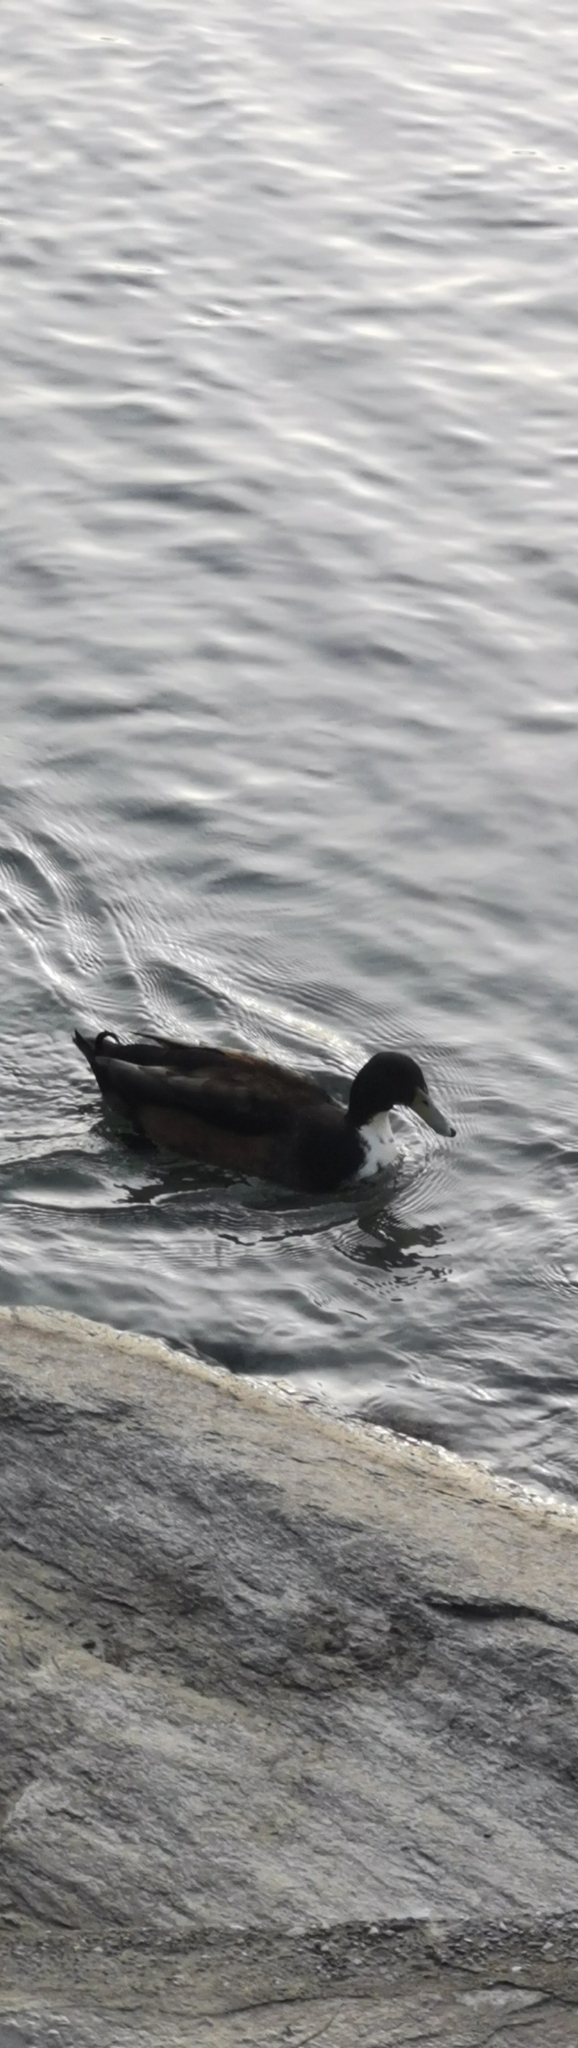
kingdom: Animalia
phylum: Chordata
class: Aves
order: Anseriformes
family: Anatidae
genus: Anas
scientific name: Anas platyrhynchos
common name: Mallard
